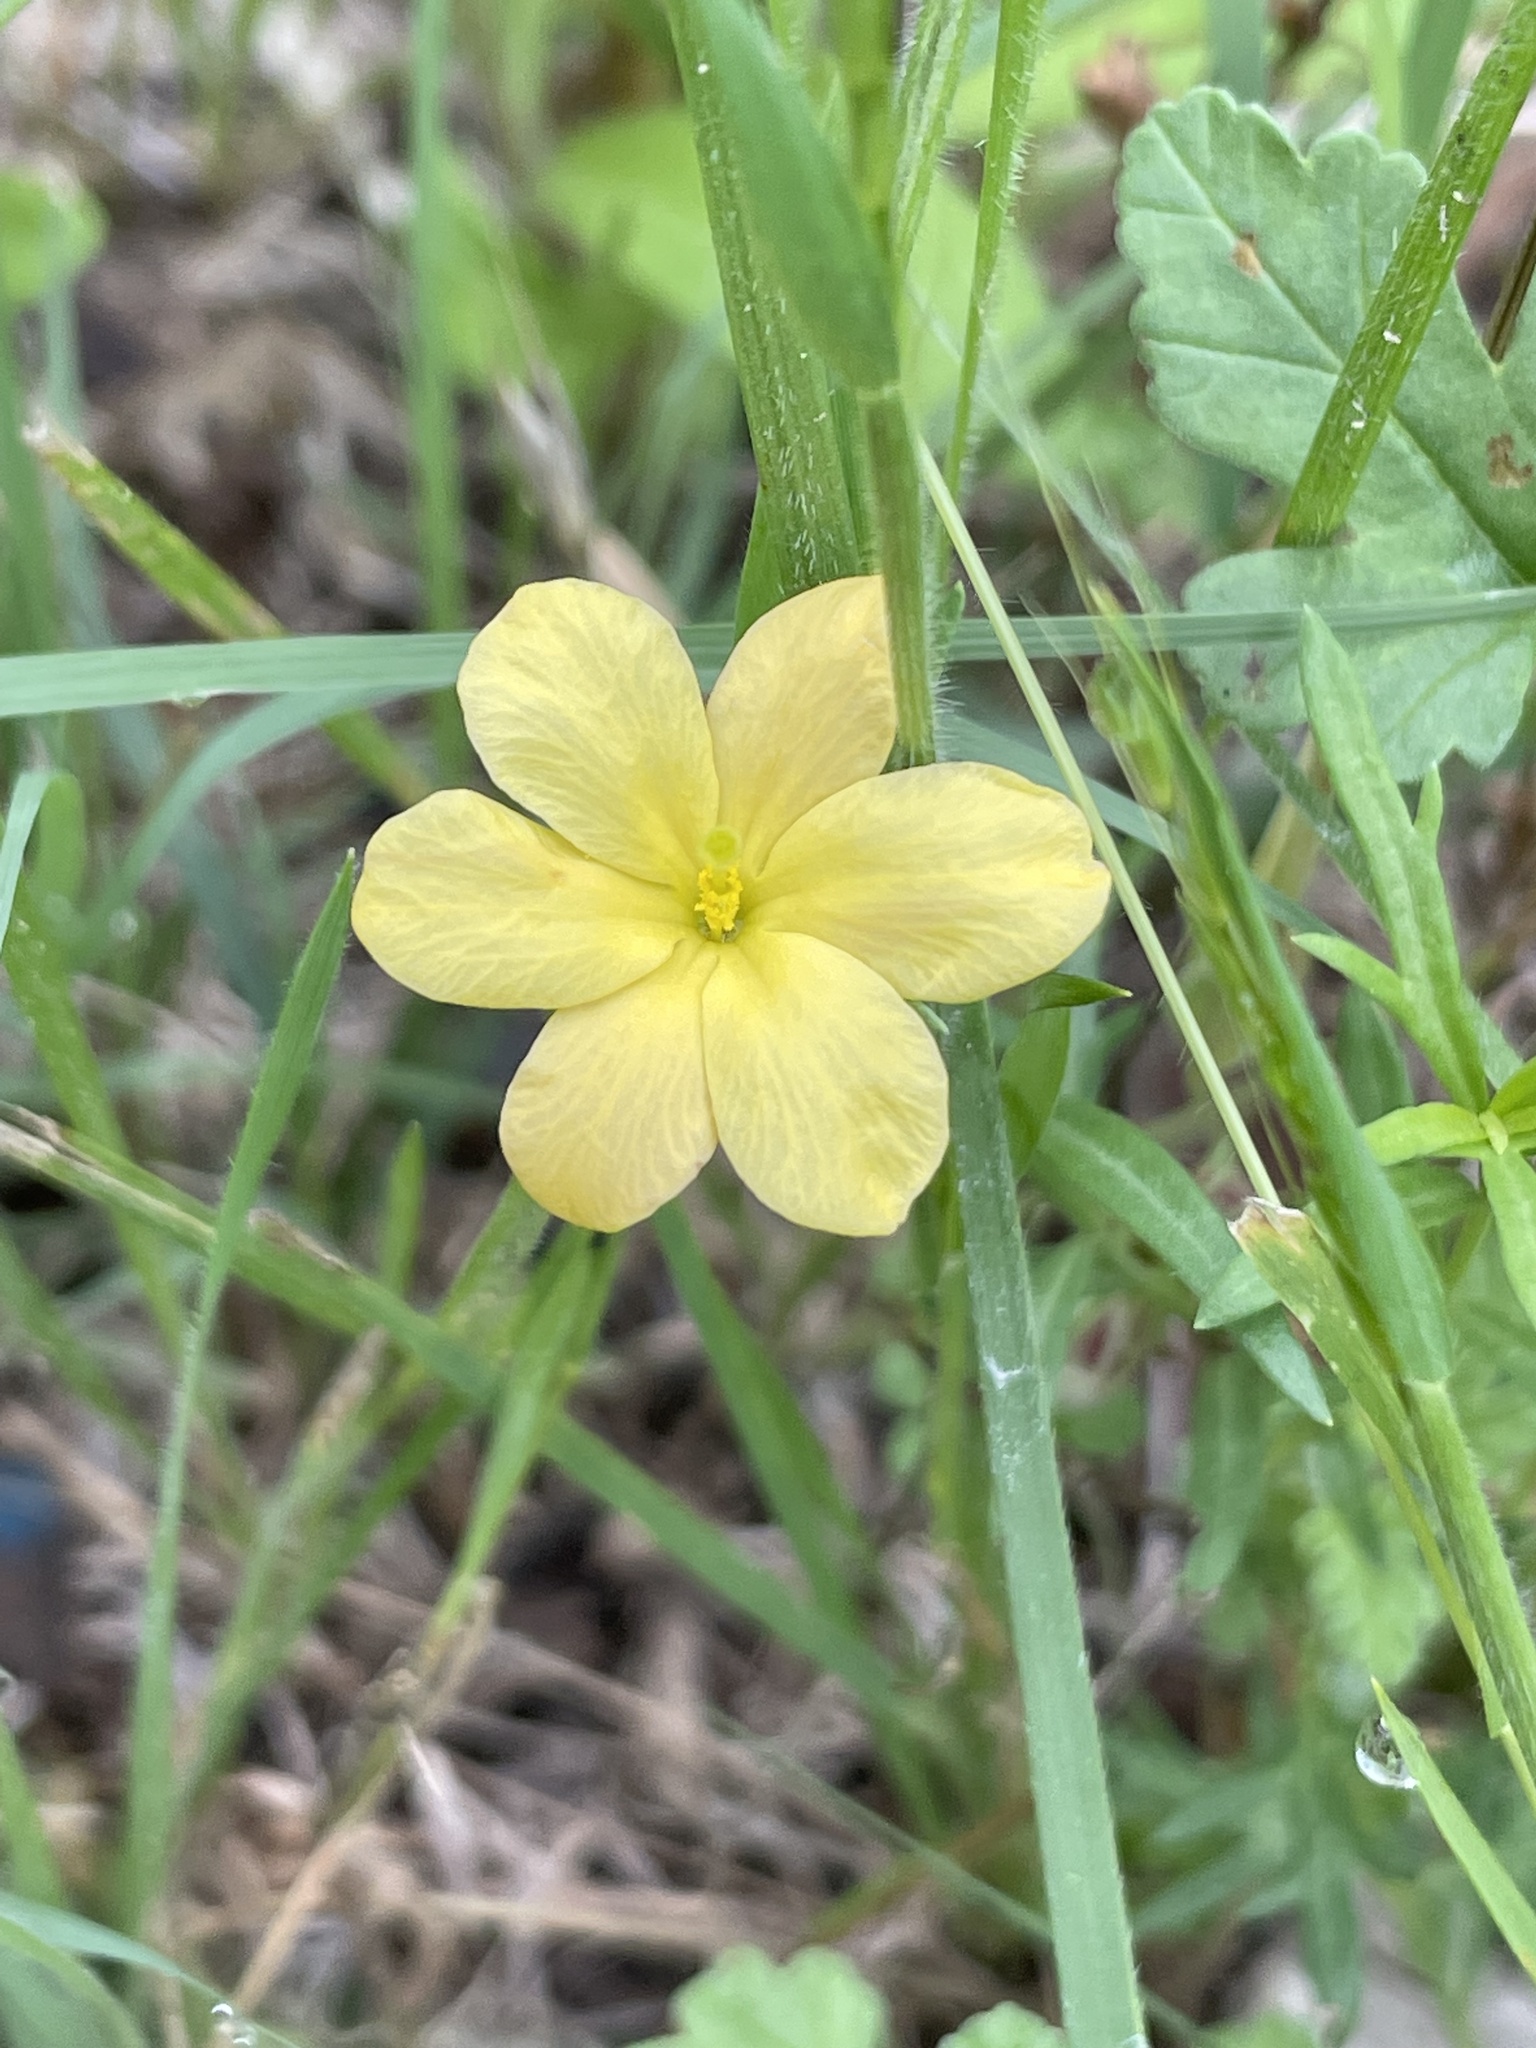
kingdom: Plantae
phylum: Tracheophyta
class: Magnoliopsida
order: Lamiales
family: Oleaceae
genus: Menodora
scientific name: Menodora heterophylla
